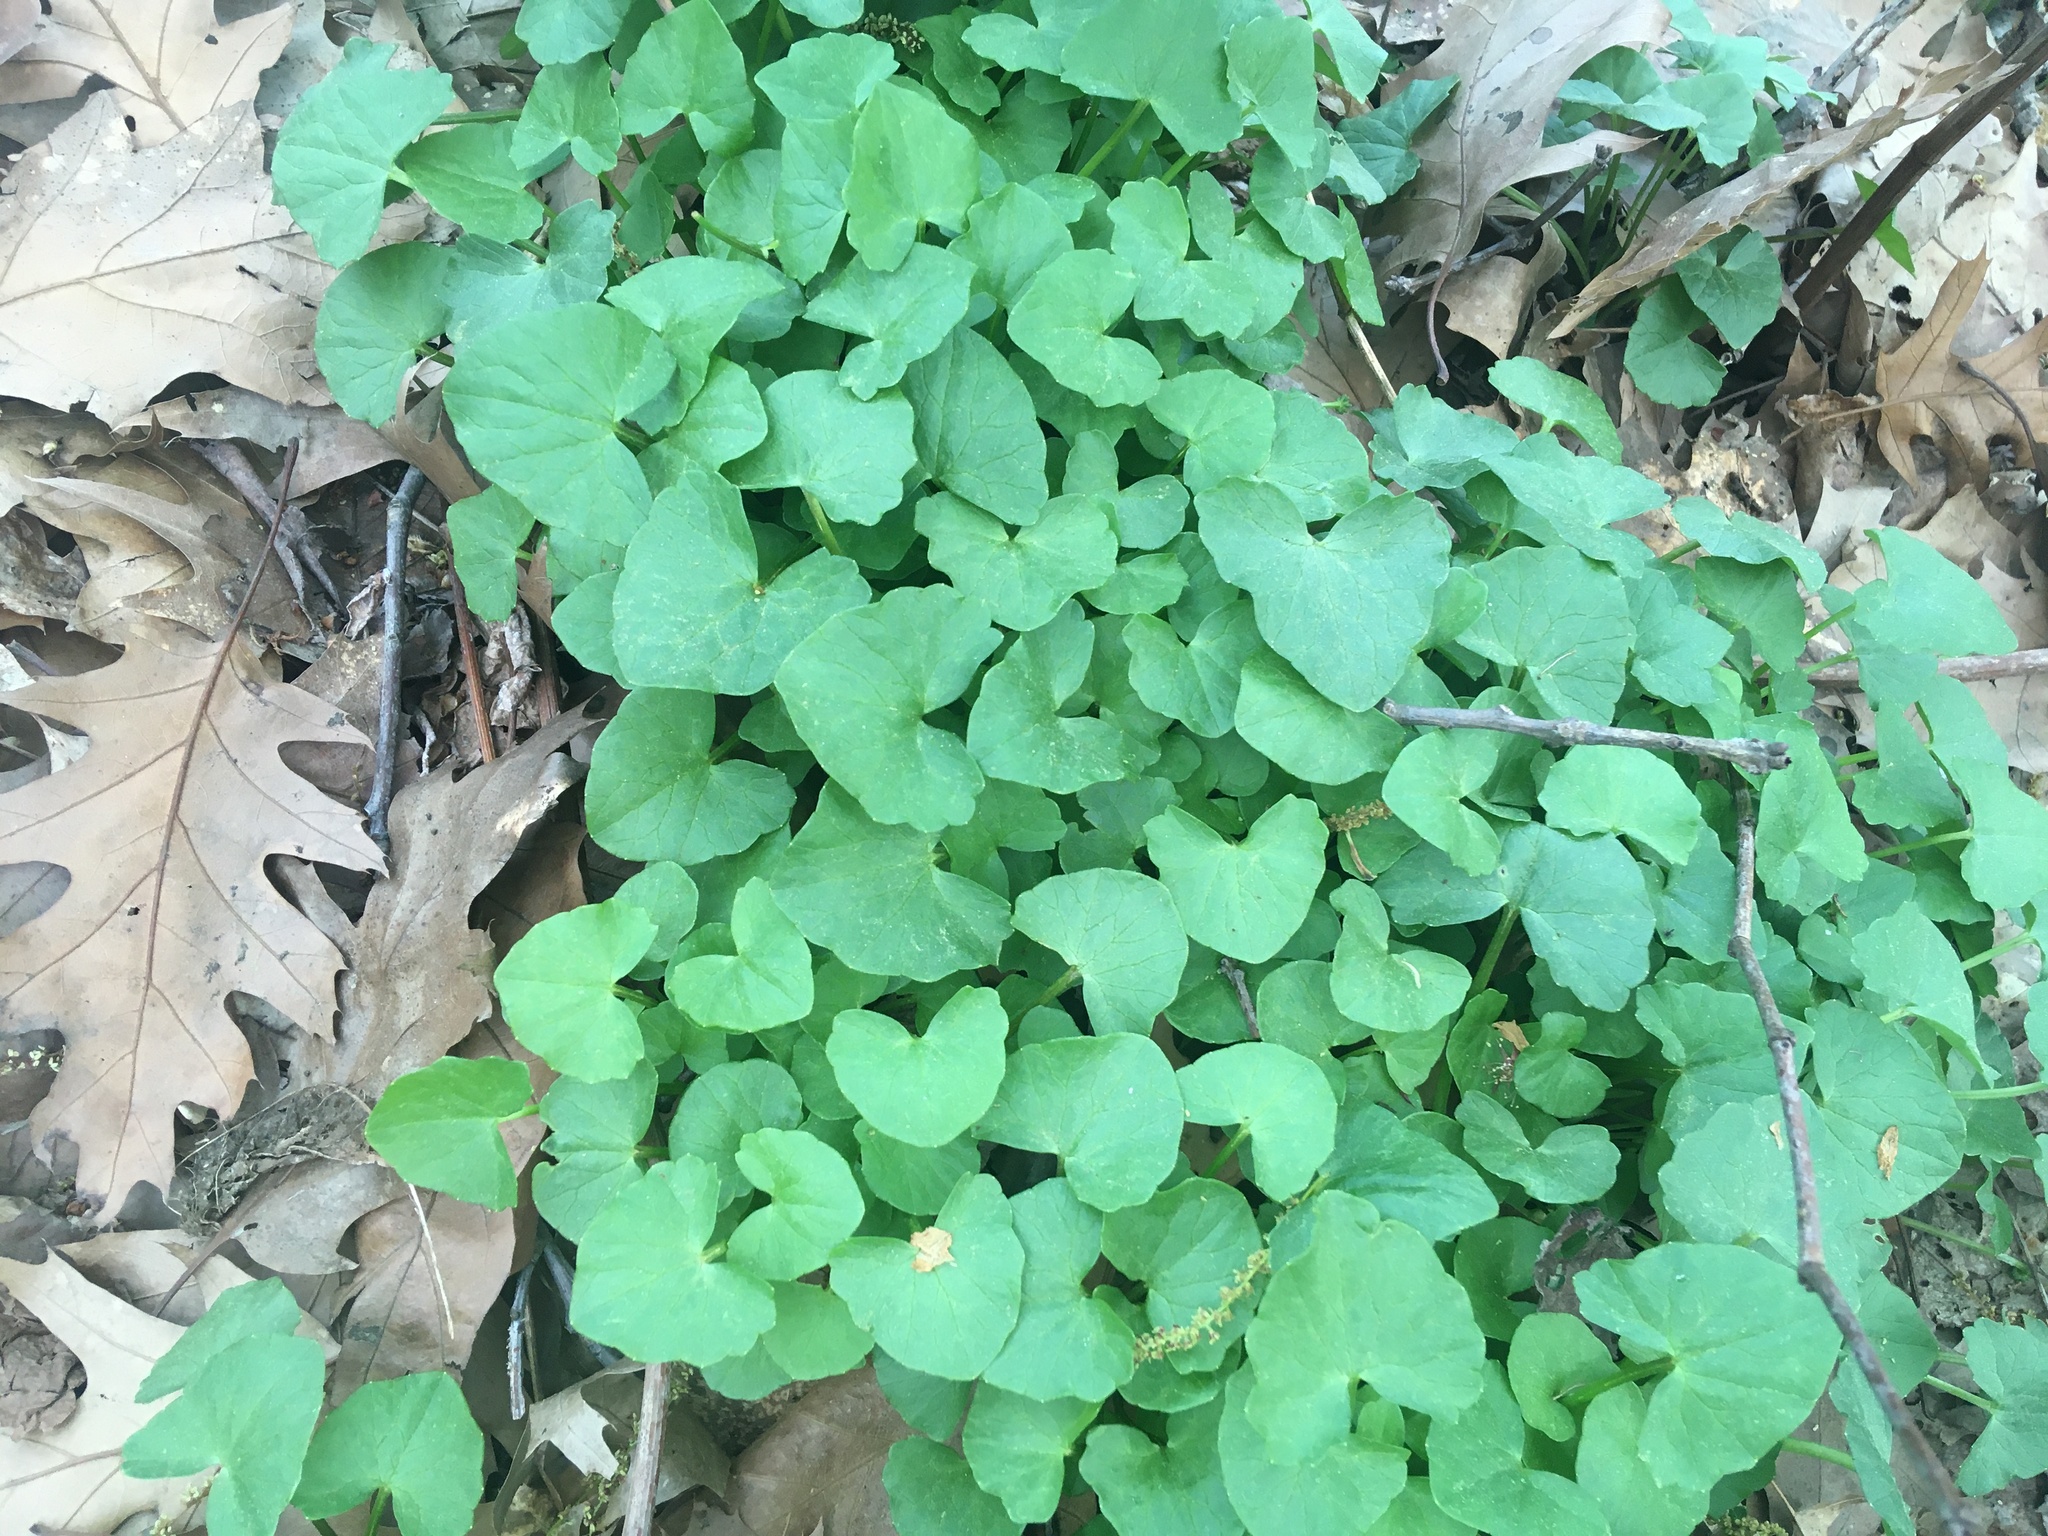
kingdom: Plantae
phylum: Tracheophyta
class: Magnoliopsida
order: Ranunculales
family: Ranunculaceae
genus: Ficaria
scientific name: Ficaria verna
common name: Lesser celandine
